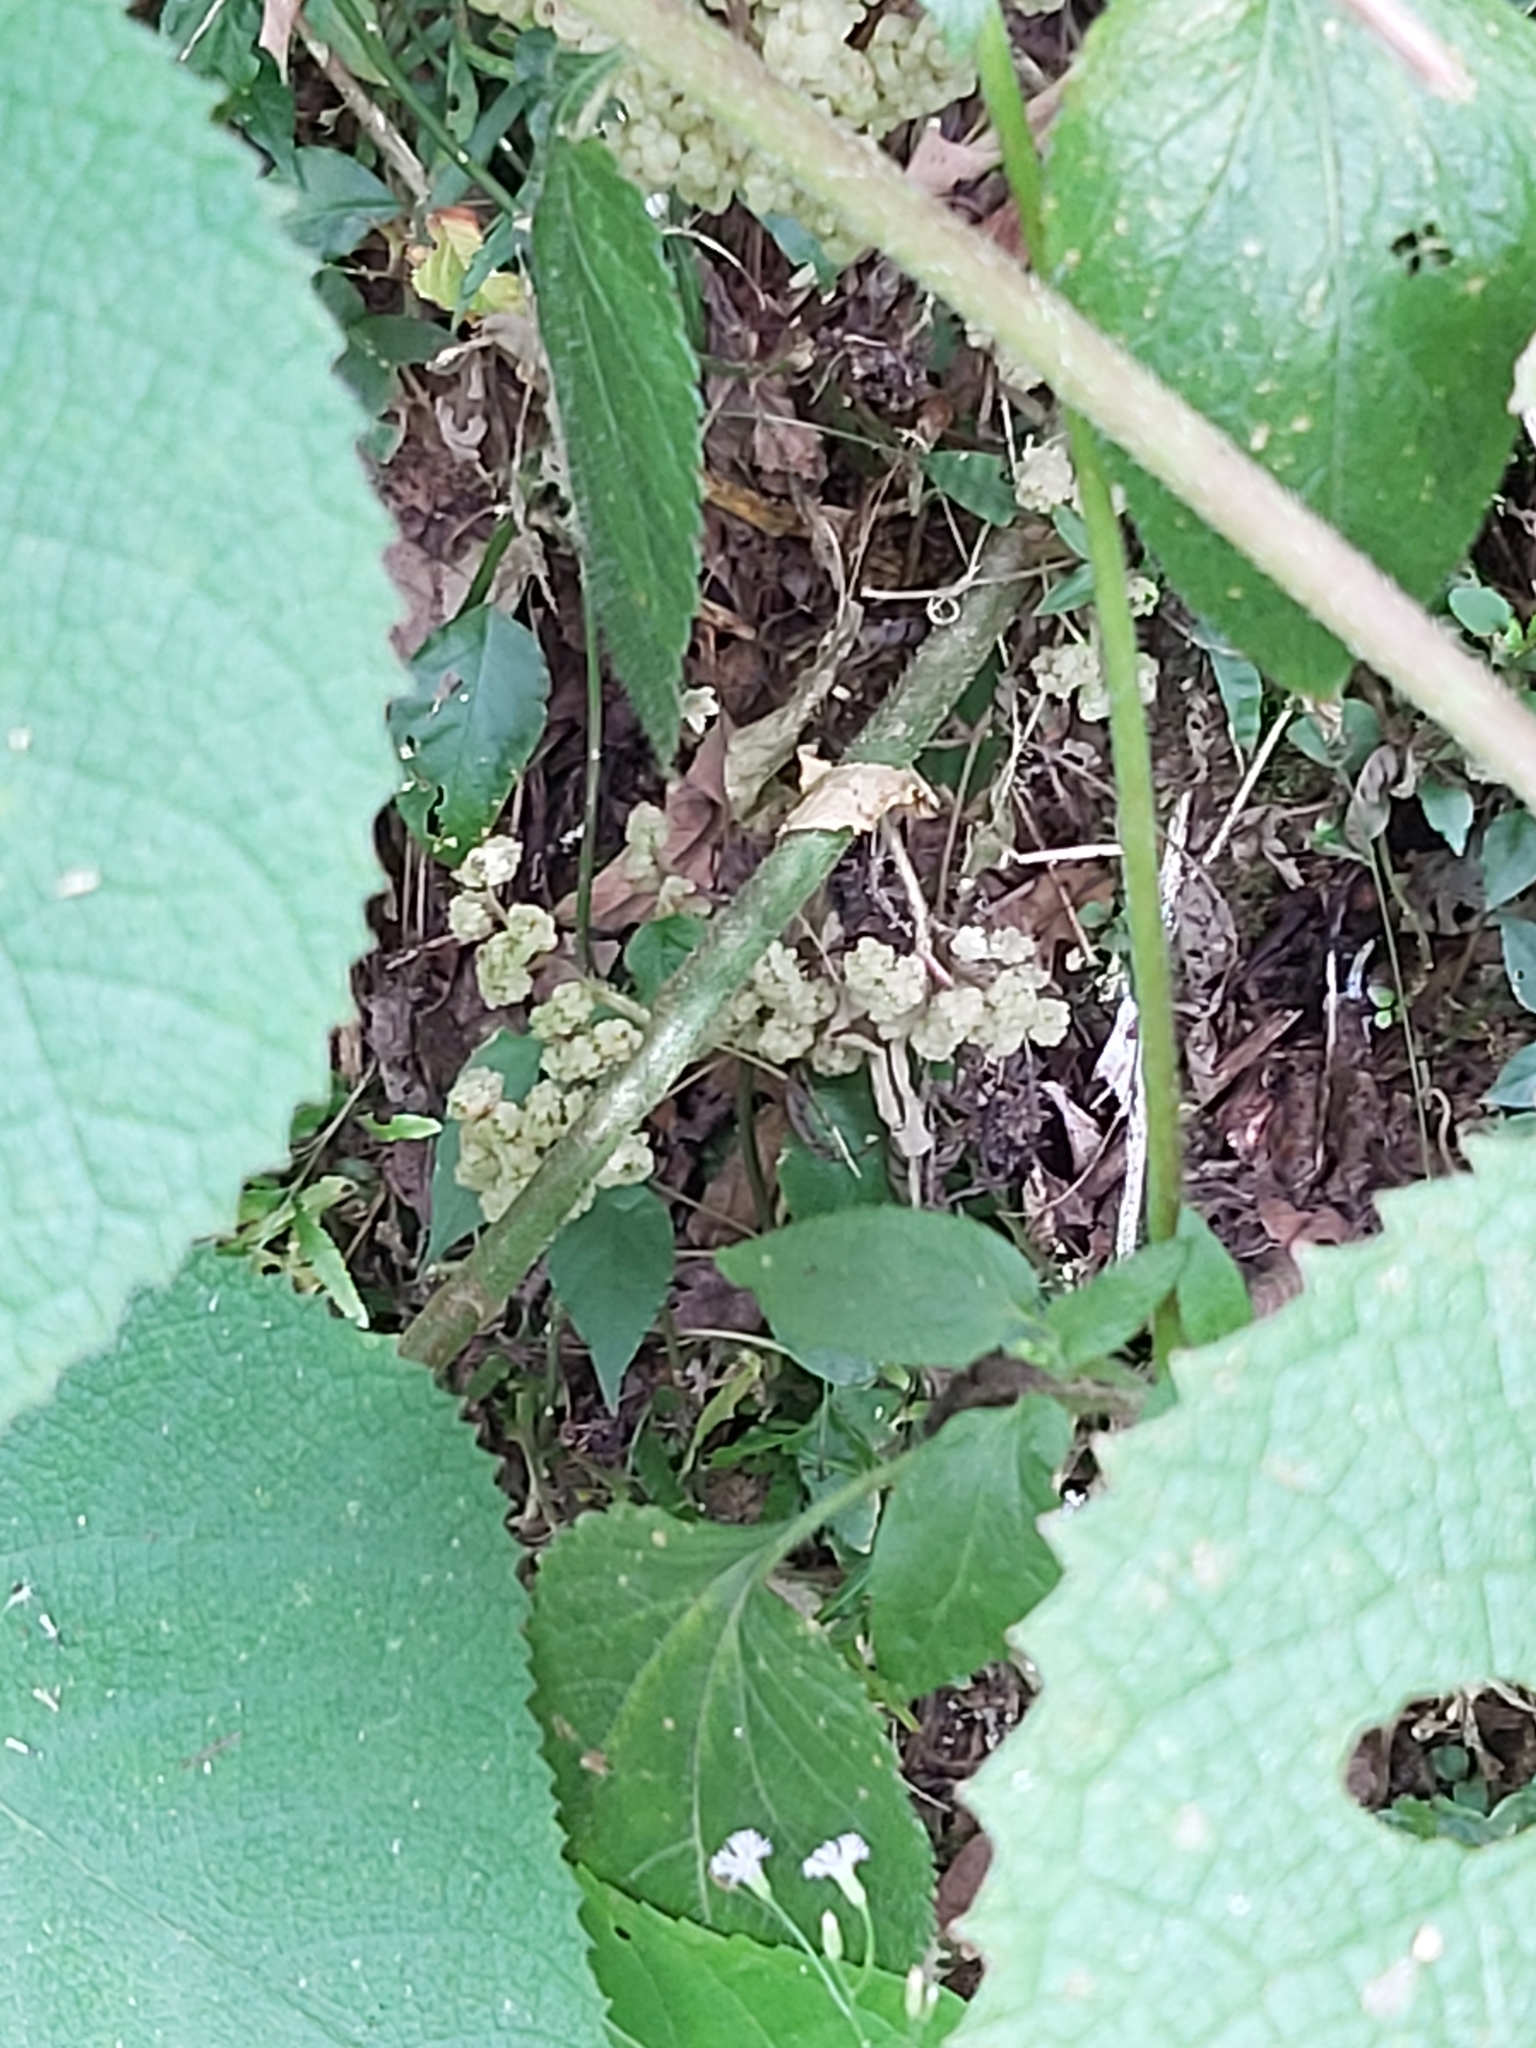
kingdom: Plantae
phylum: Tracheophyta
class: Magnoliopsida
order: Rosales
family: Urticaceae
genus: Dendrocnide
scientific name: Dendrocnide moroides
